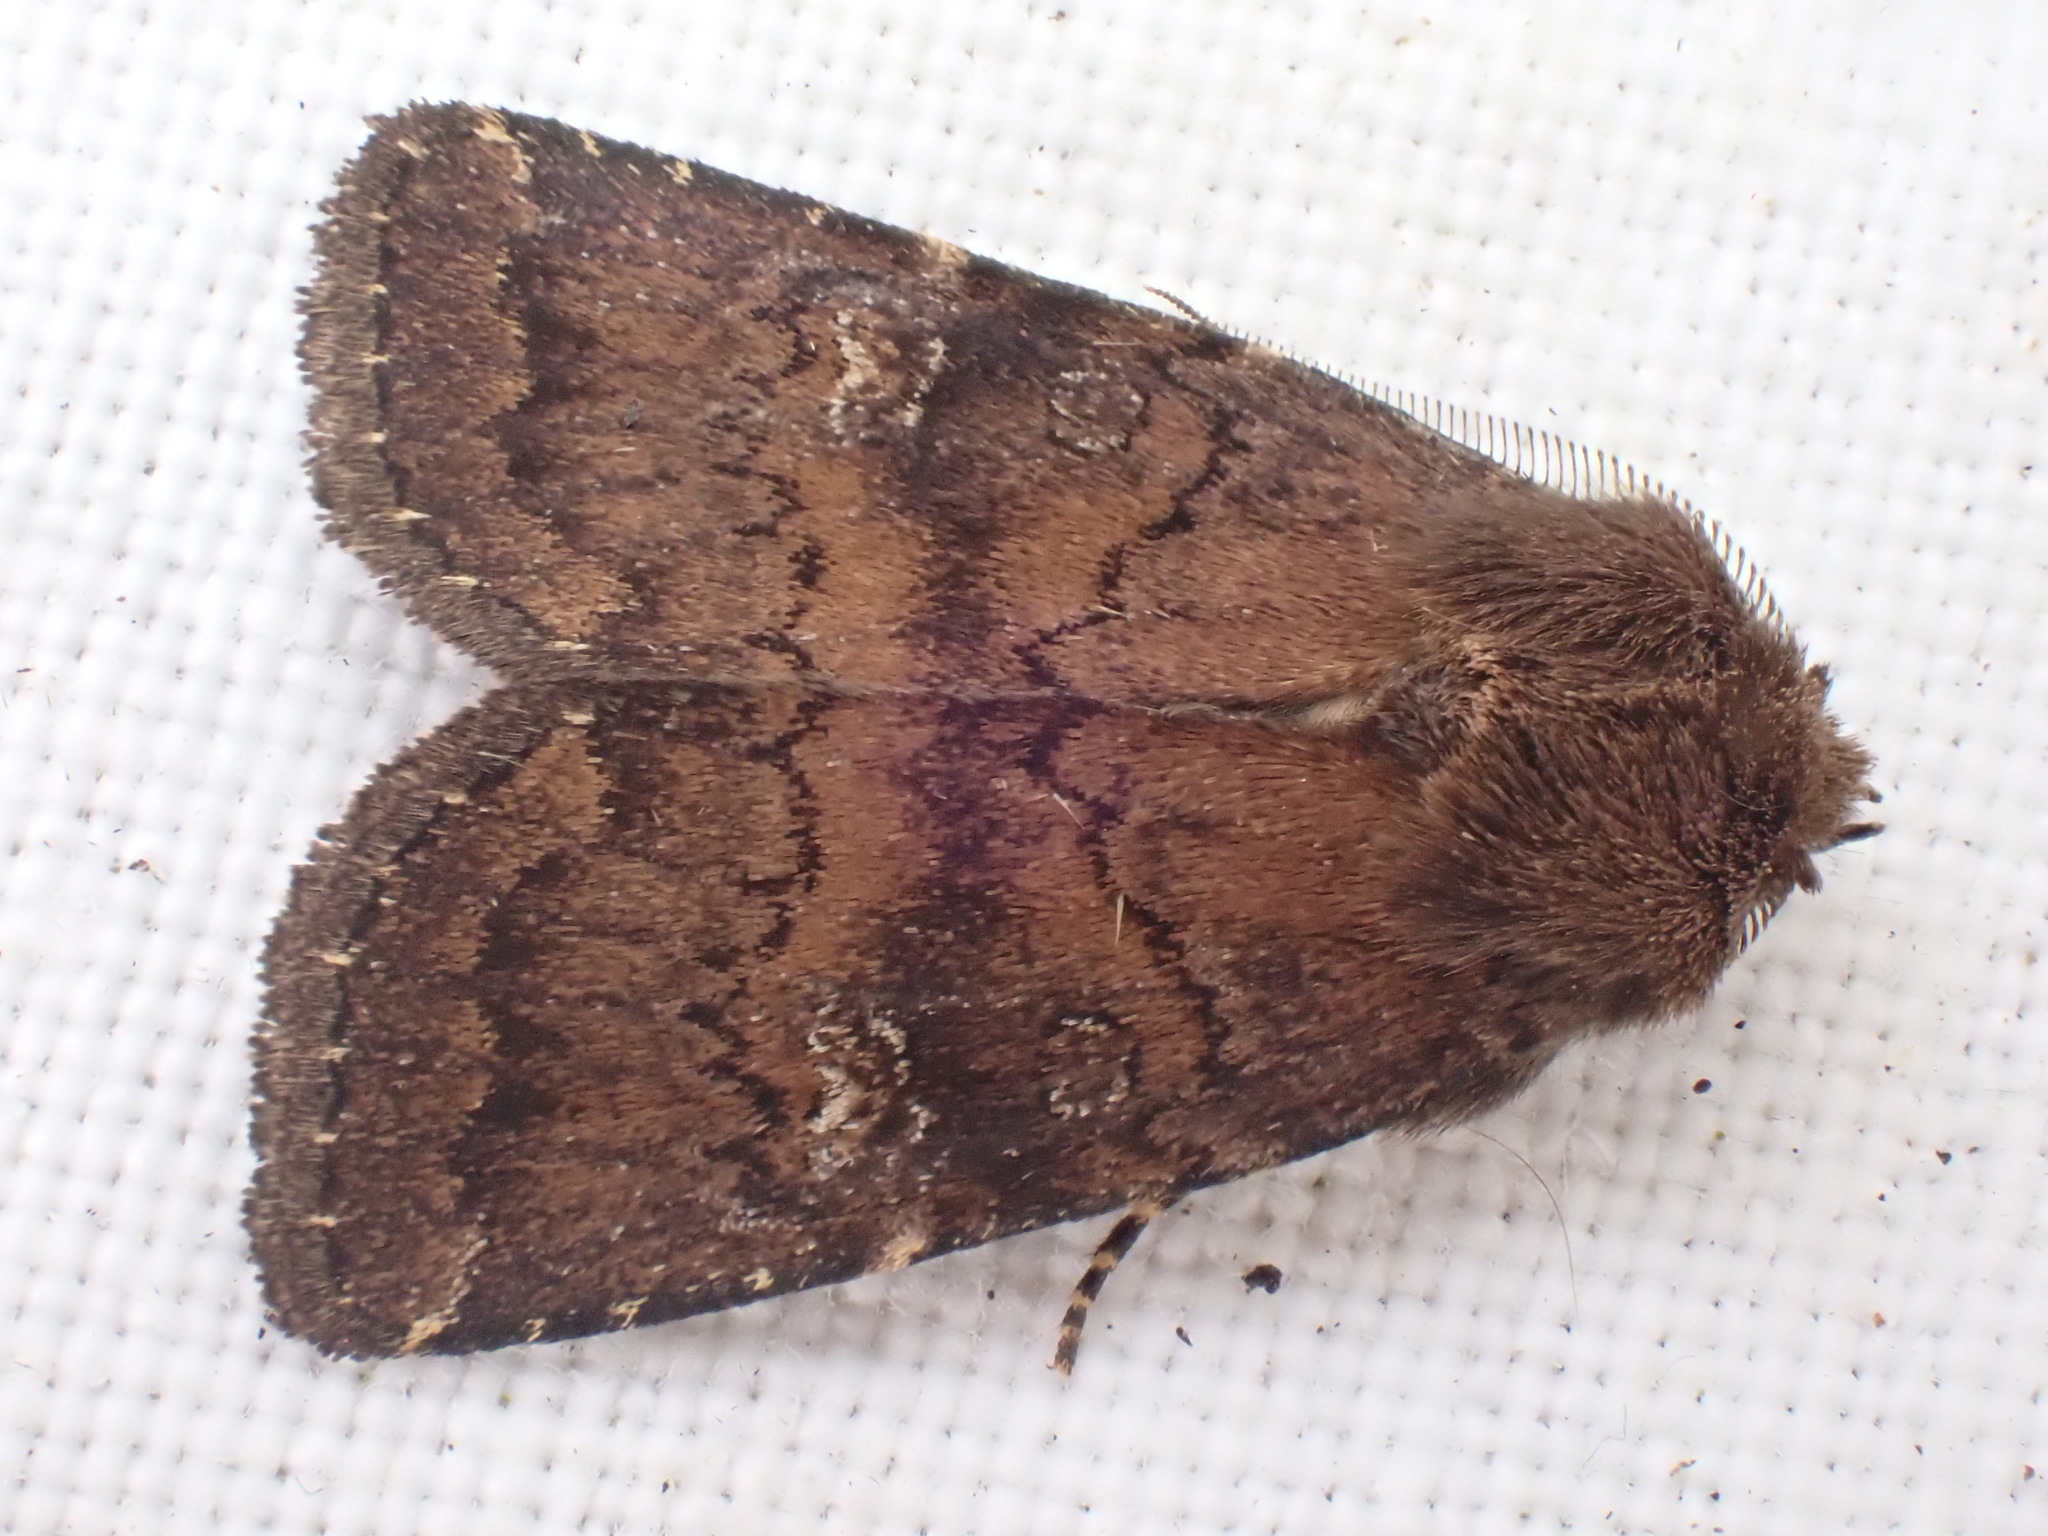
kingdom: Animalia
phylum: Arthropoda
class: Insecta
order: Lepidoptera
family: Noctuidae
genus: Charanyca
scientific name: Charanyca ferruginea
